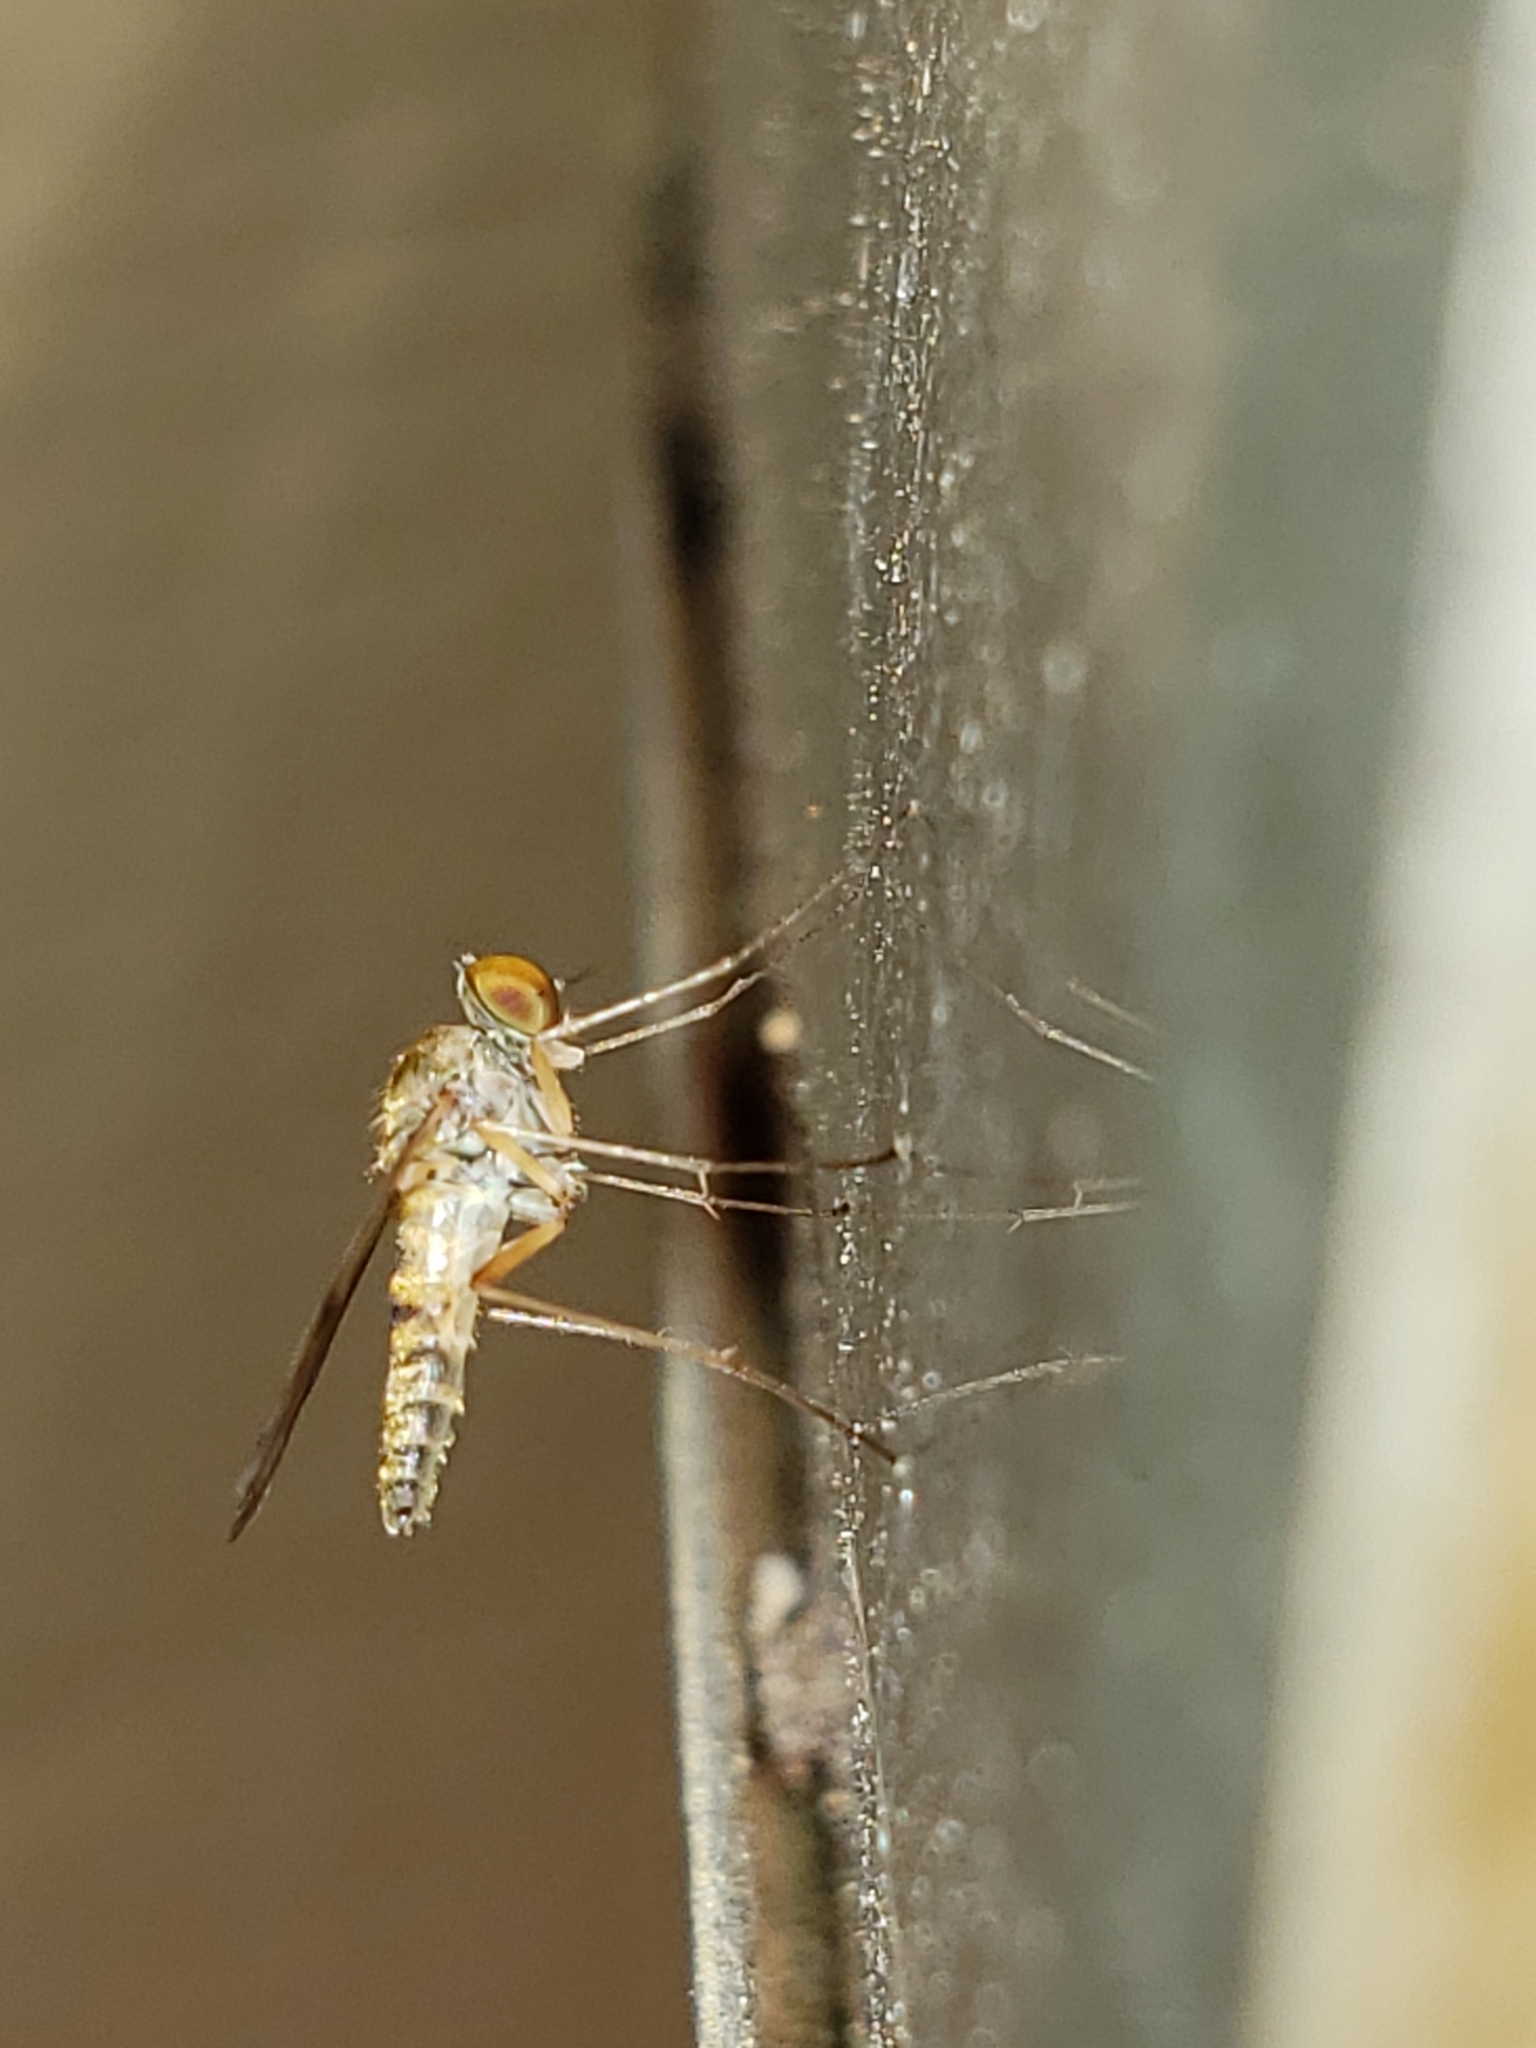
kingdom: Animalia
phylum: Arthropoda
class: Insecta
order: Diptera
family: Rhagionidae
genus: Chrysopilus
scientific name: Chrysopilus modestus
